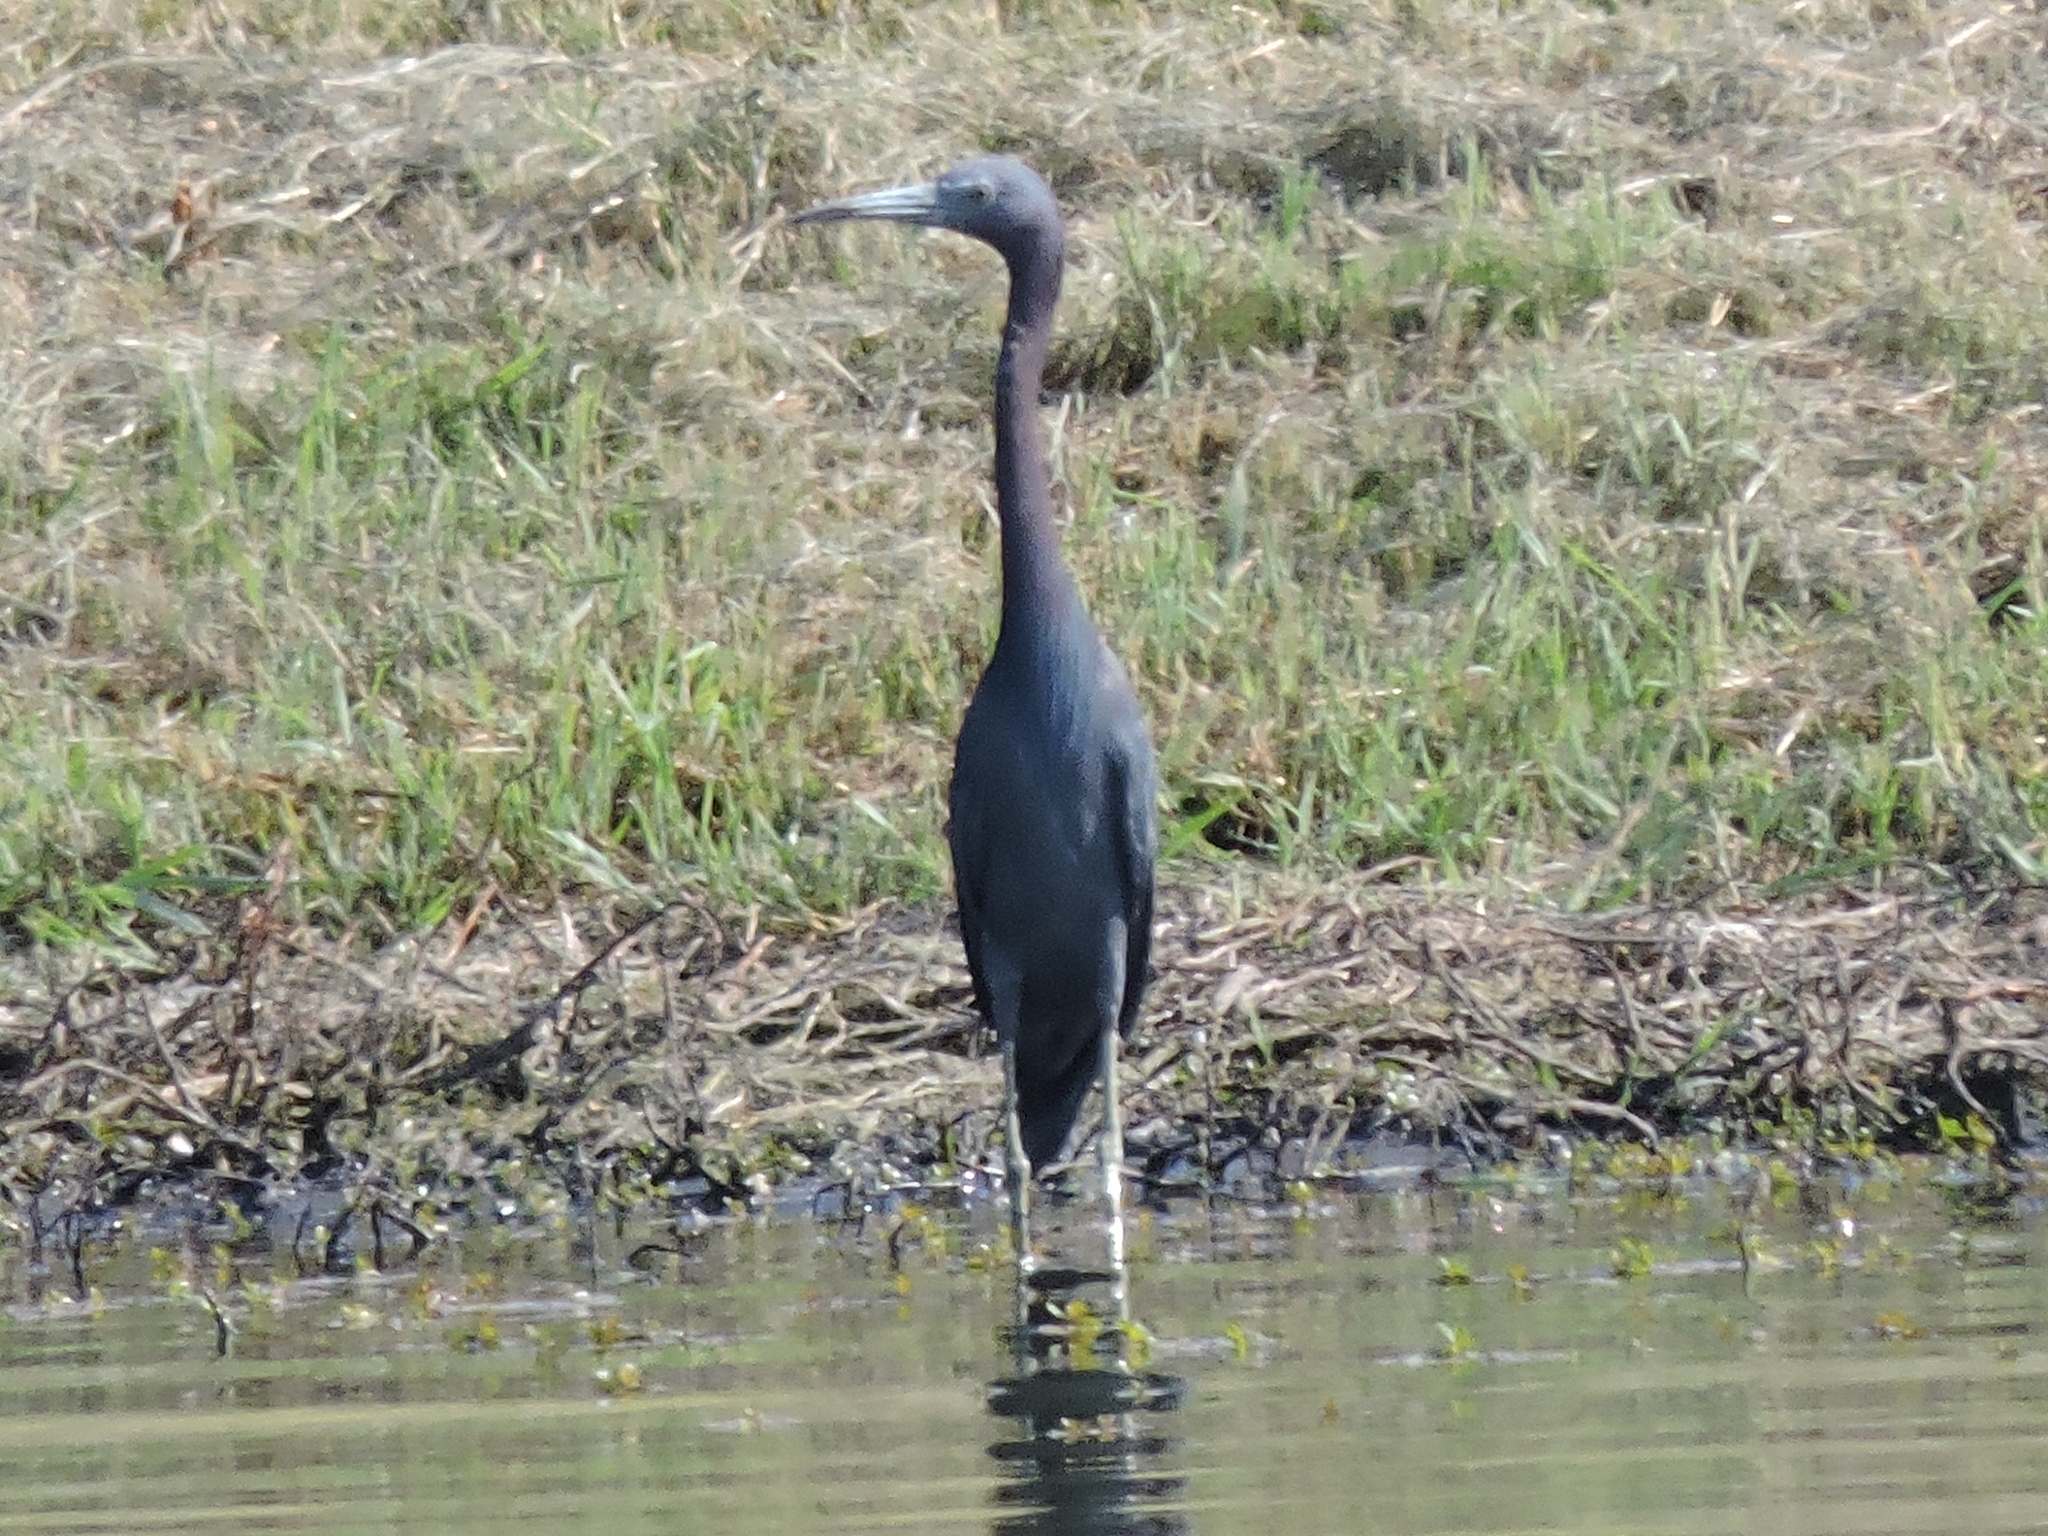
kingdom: Animalia
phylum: Chordata
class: Aves
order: Pelecaniformes
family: Ardeidae
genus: Egretta
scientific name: Egretta caerulea
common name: Little blue heron
